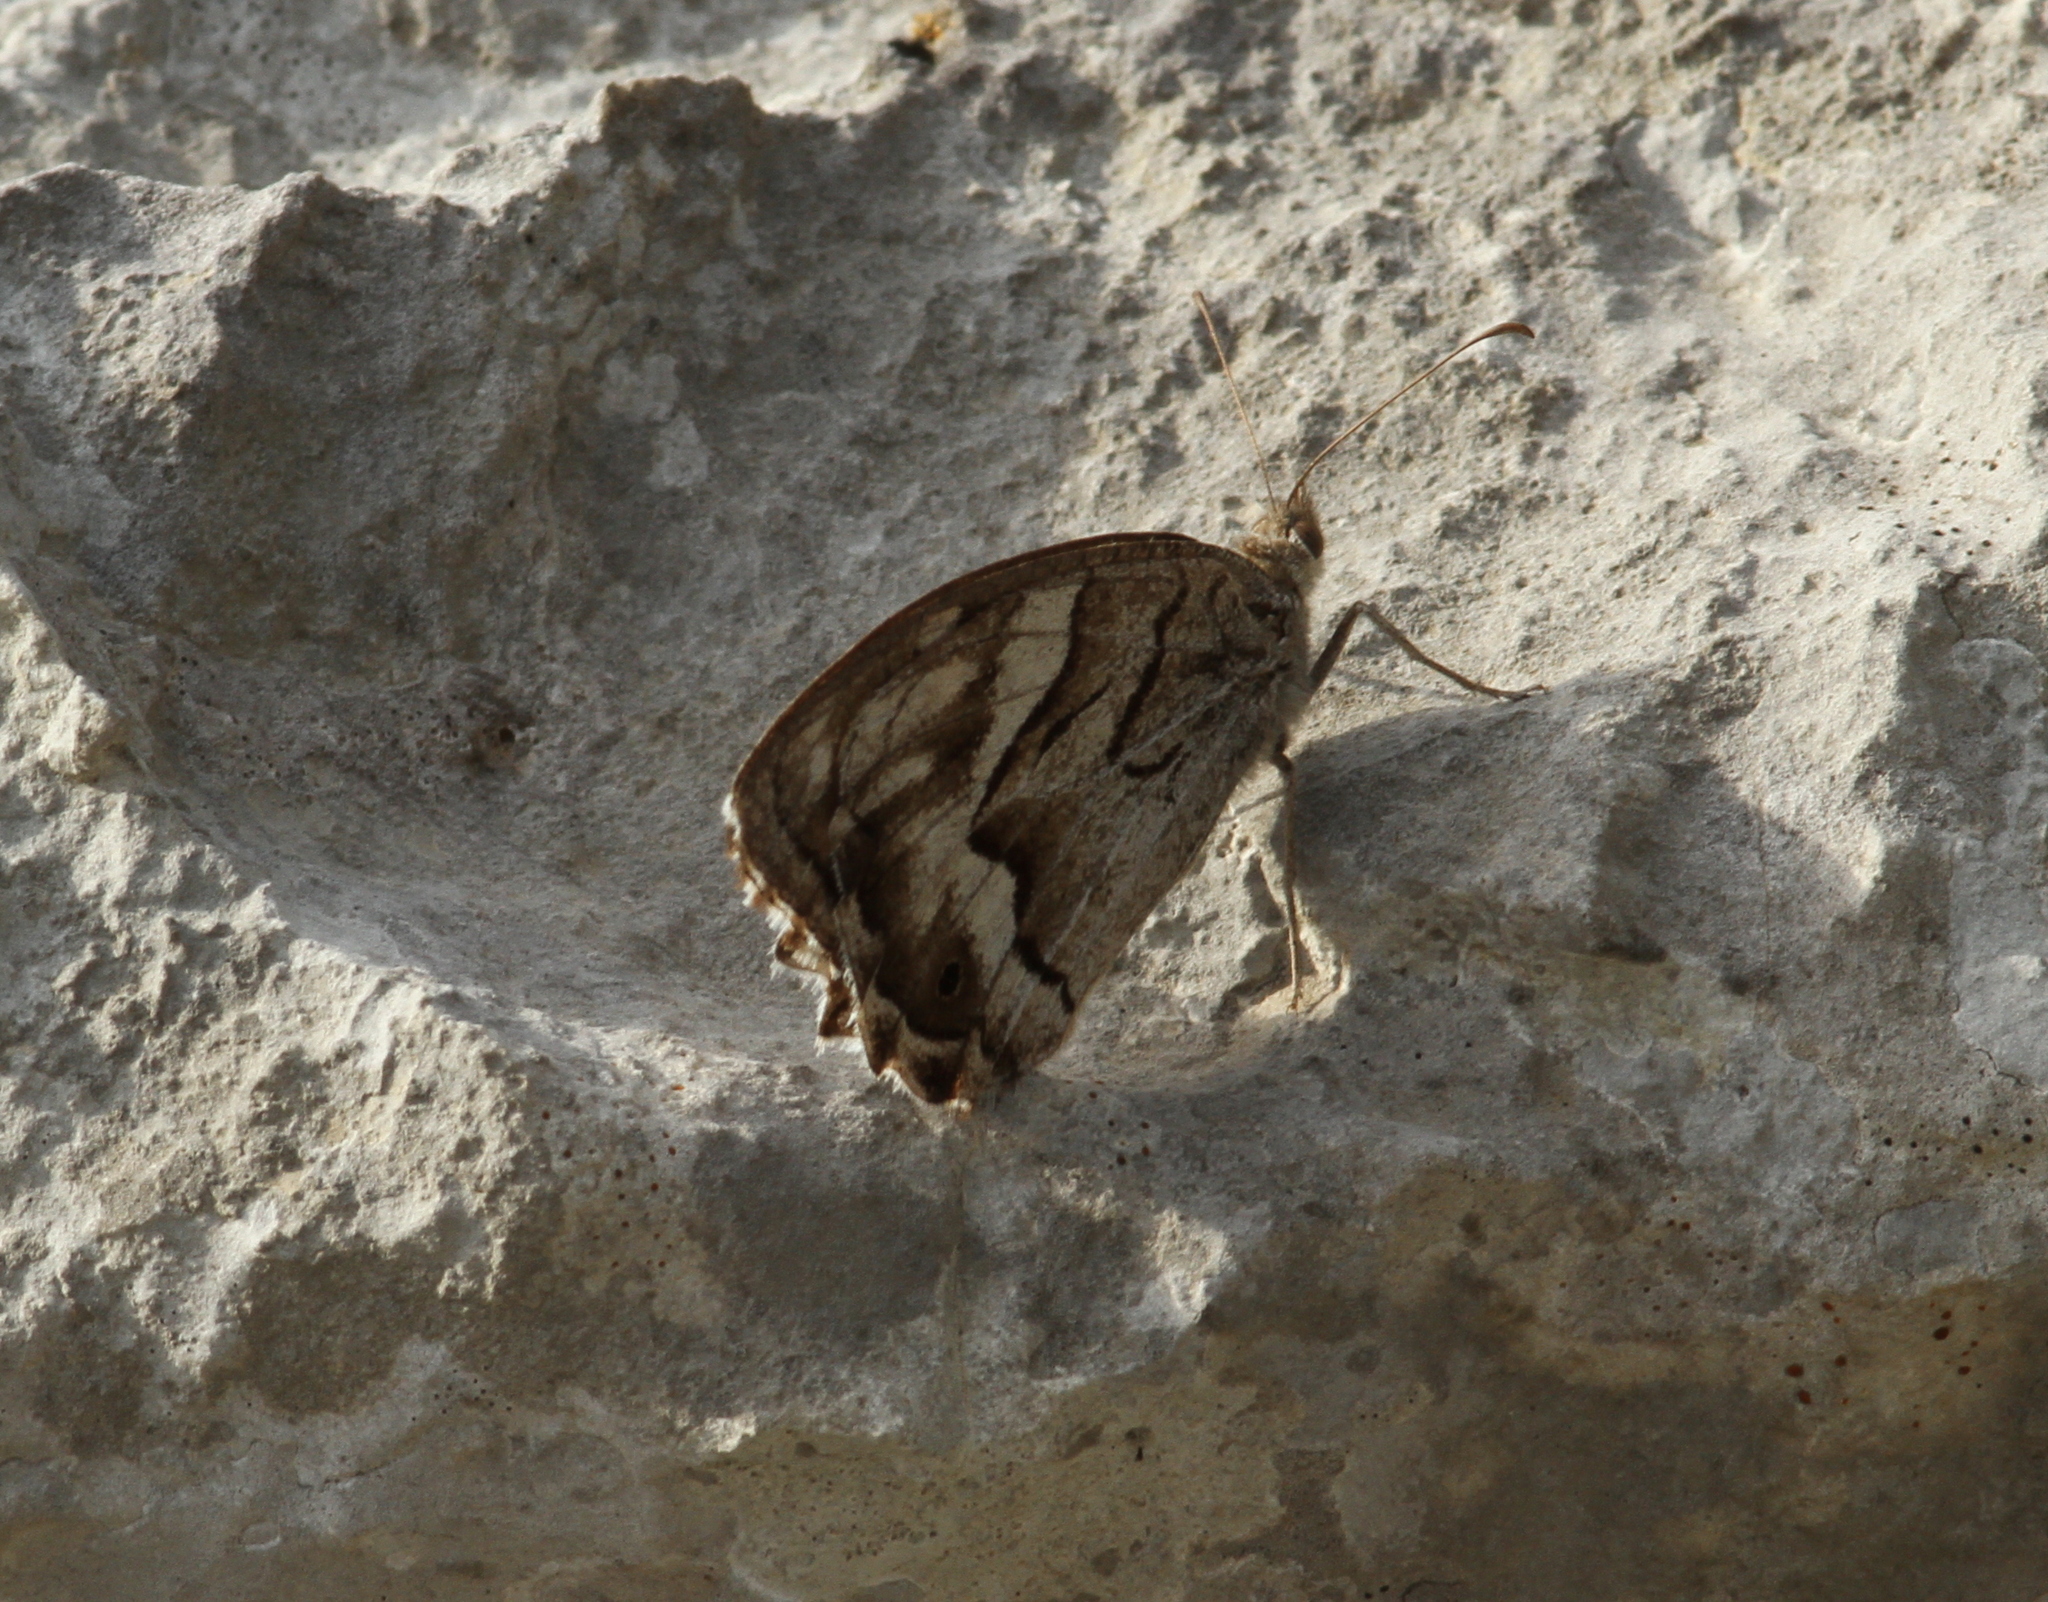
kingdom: Animalia
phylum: Arthropoda
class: Insecta
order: Lepidoptera
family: Nymphalidae
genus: Hipparchia
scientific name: Hipparchia fidia
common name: Striped grayling
